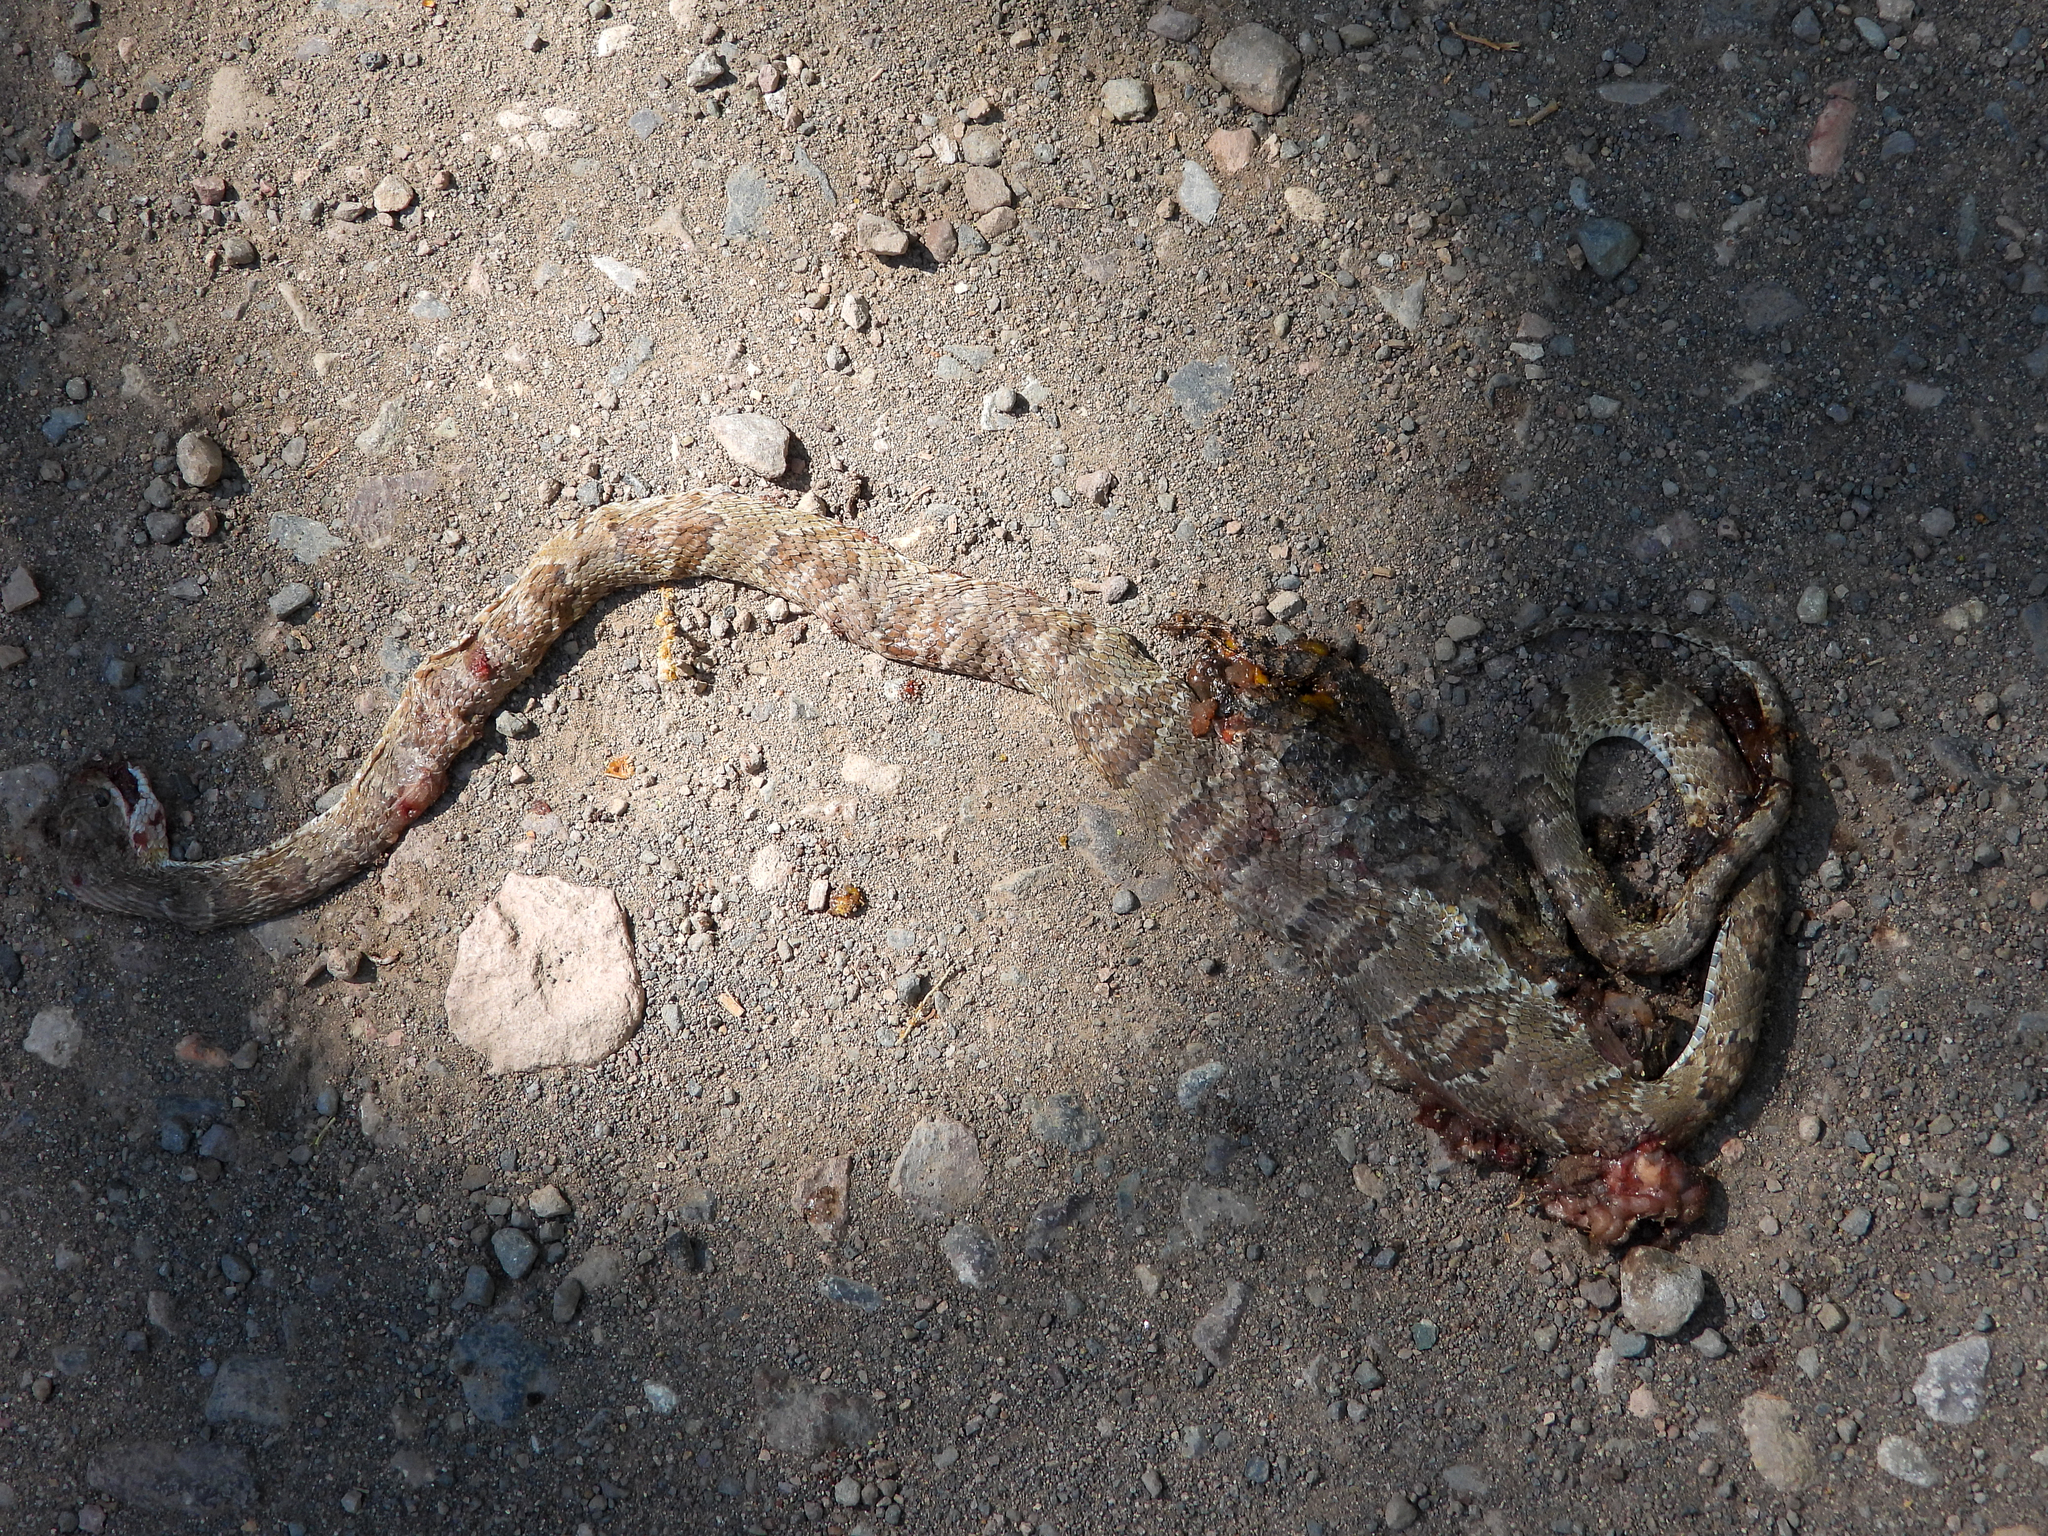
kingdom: Animalia
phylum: Chordata
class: Squamata
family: Colubridae
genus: Trimorphodon
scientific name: Trimorphodon lambda
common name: Sonoran lyre snake
